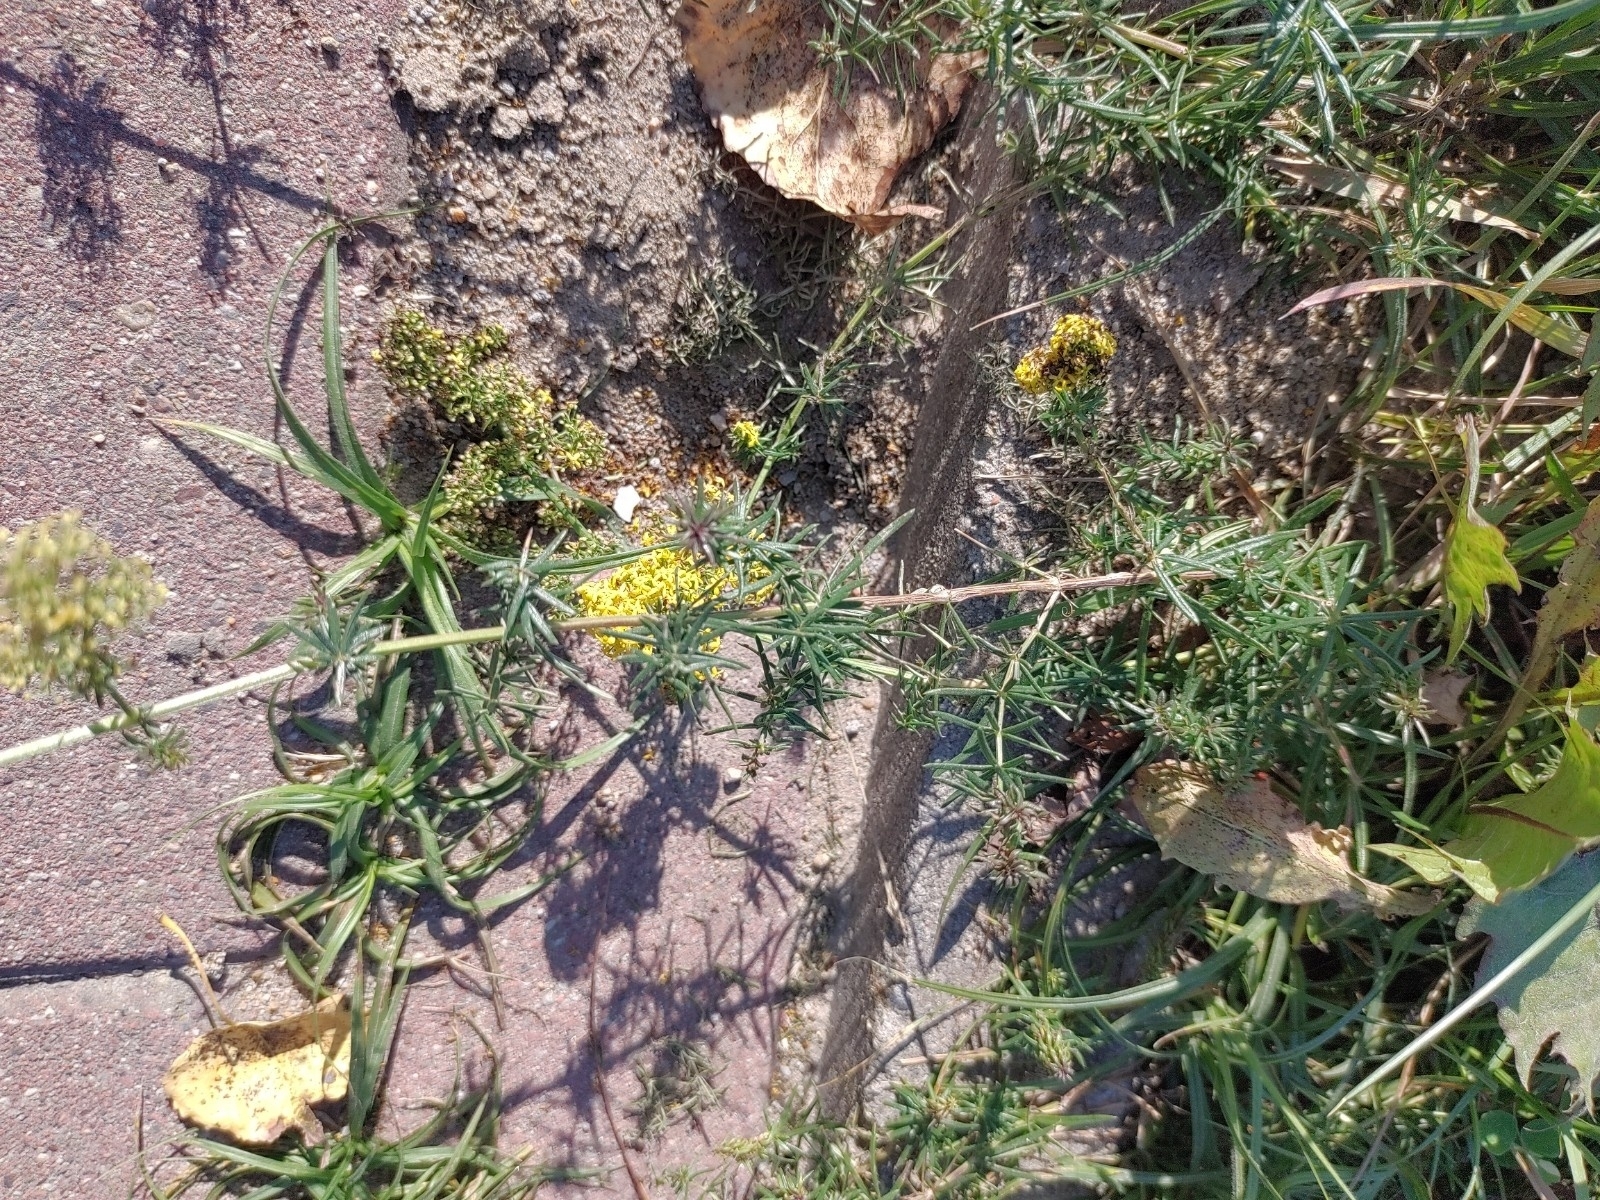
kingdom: Plantae
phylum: Tracheophyta
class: Magnoliopsida
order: Gentianales
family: Rubiaceae
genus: Galium
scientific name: Galium verum
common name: Lady's bedstraw
